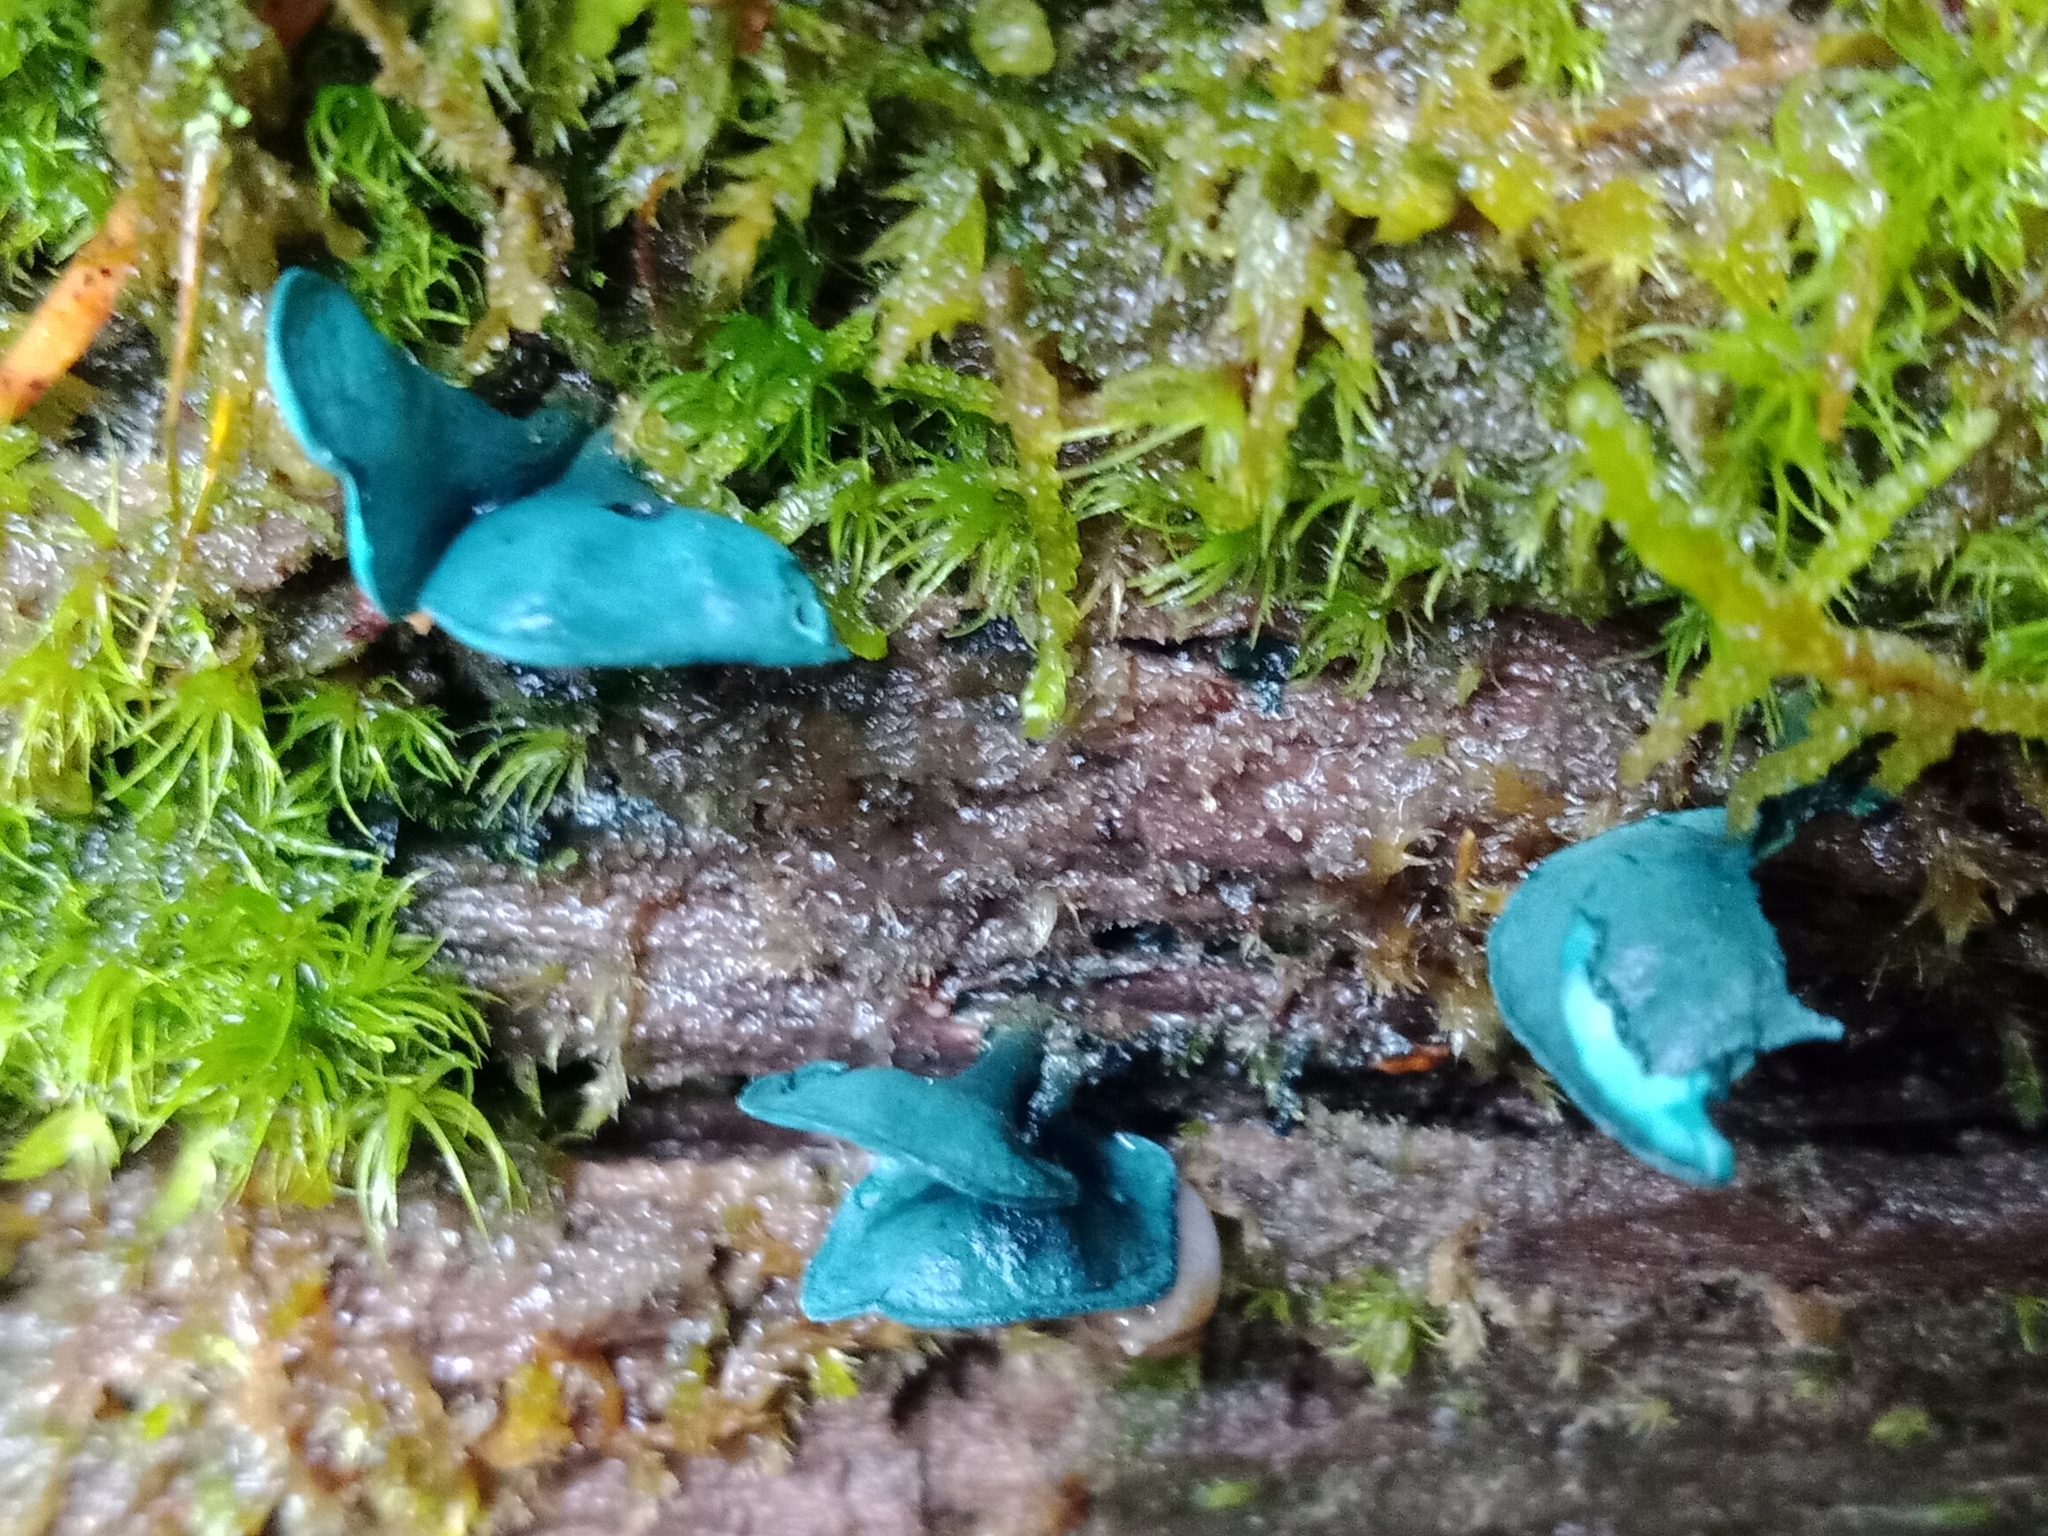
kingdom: Fungi
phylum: Ascomycota
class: Leotiomycetes
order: Helotiales
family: Chlorociboriaceae
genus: Chlorociboria
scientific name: Chlorociboria aeruginascens
